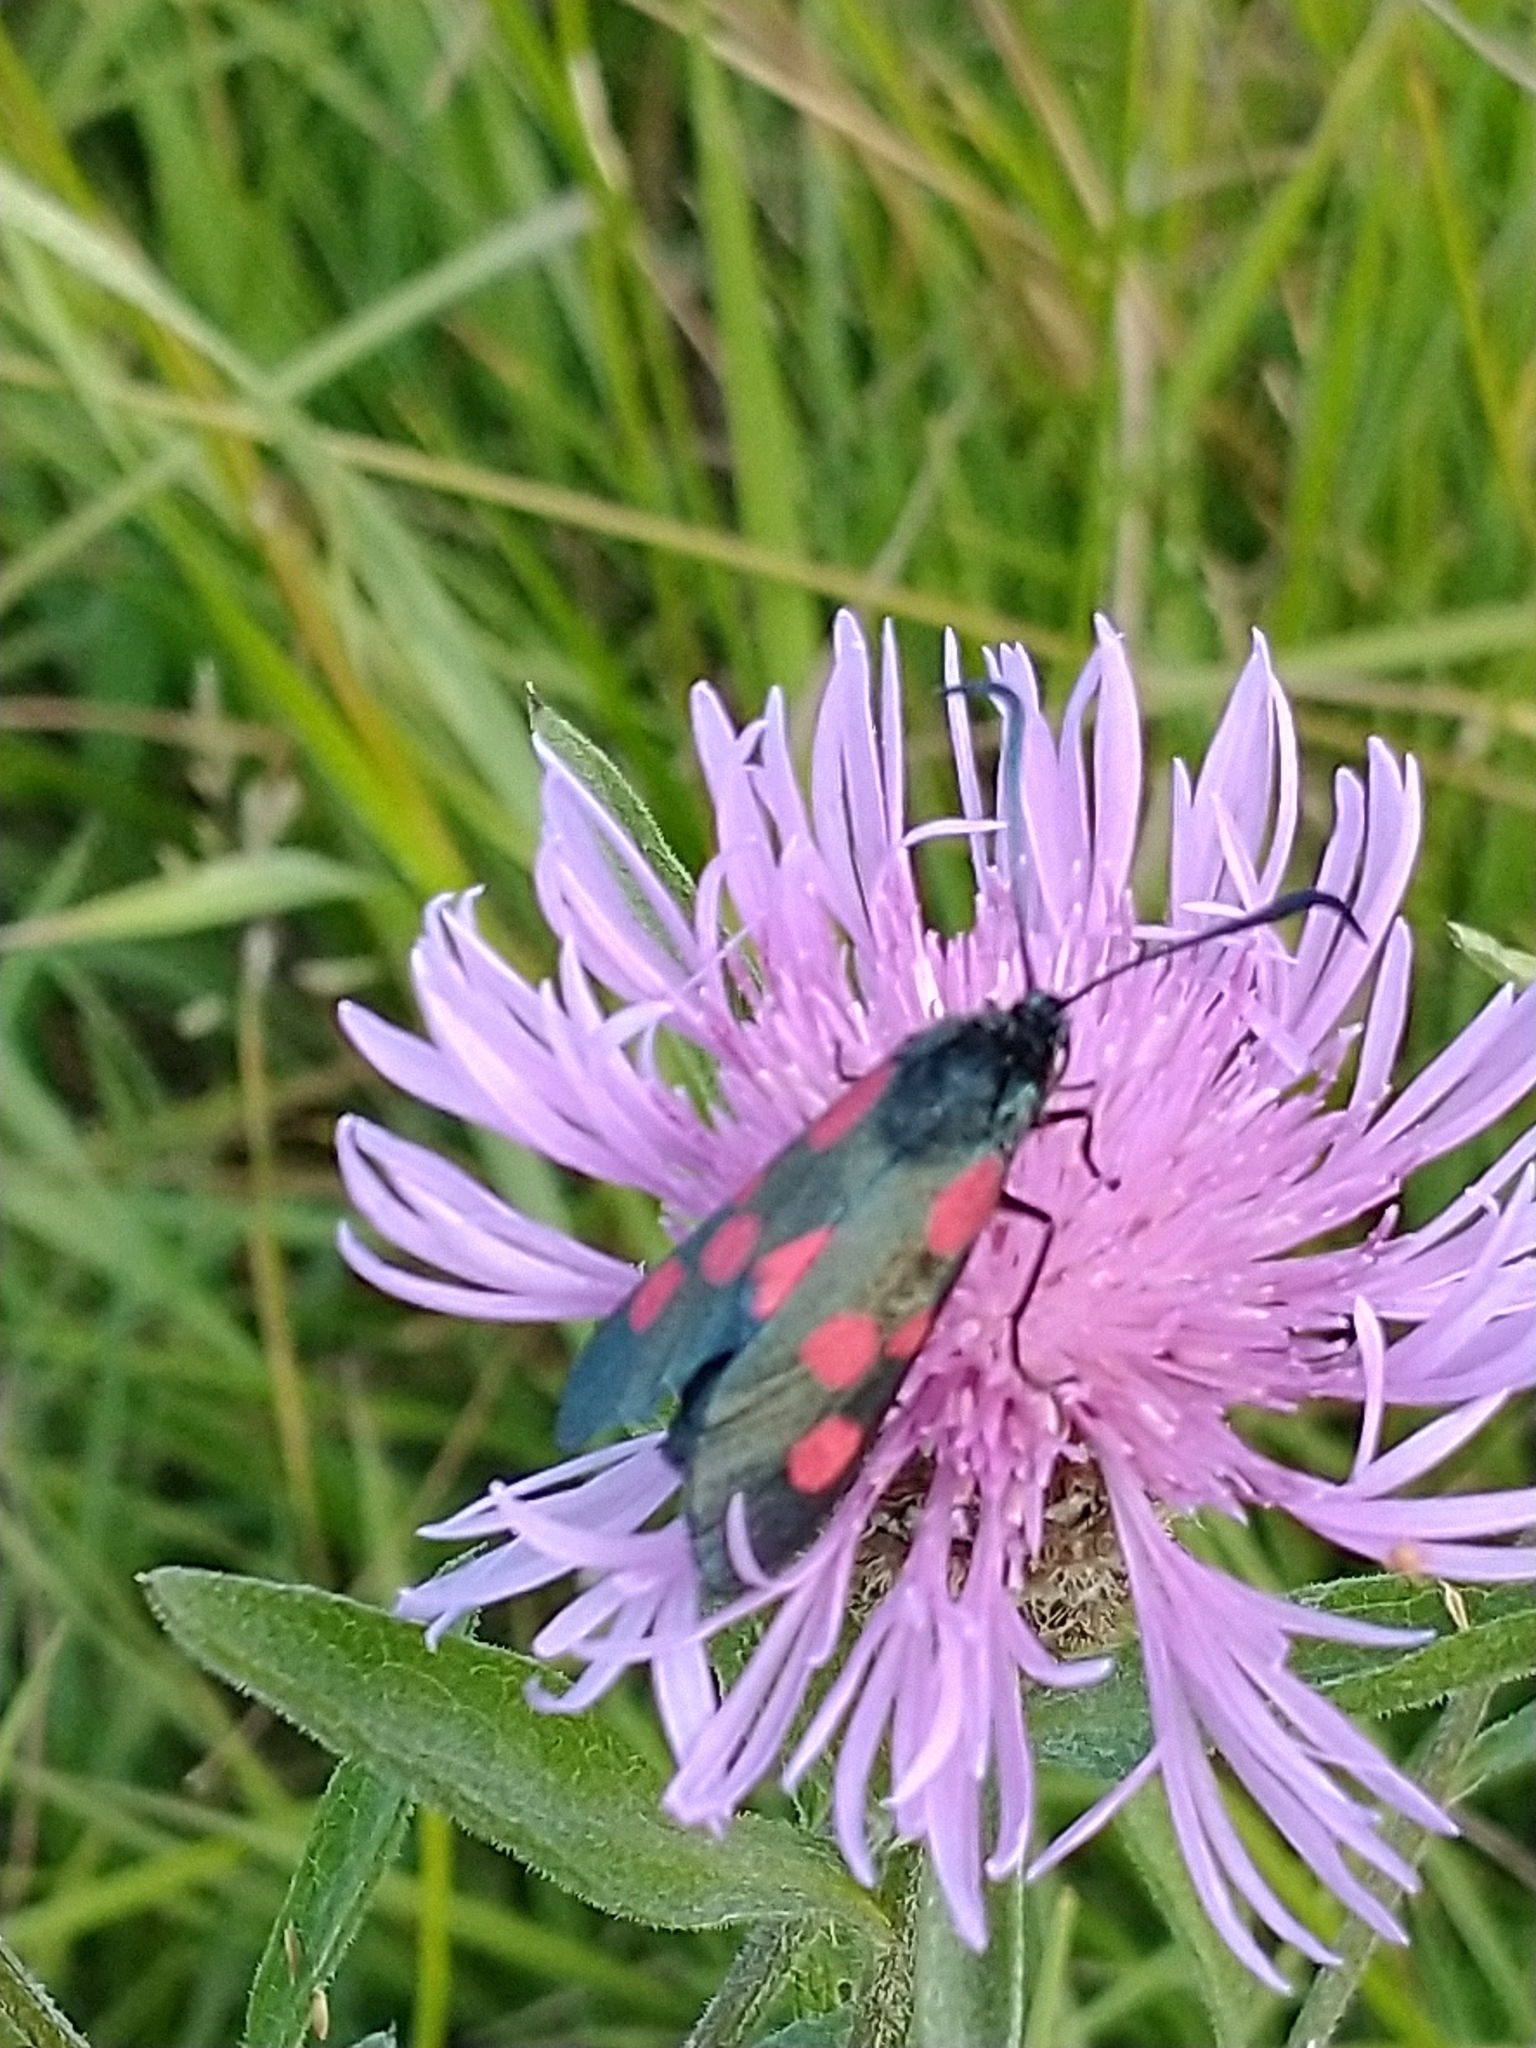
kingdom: Animalia
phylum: Arthropoda
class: Insecta
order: Lepidoptera
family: Zygaenidae
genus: Zygaena
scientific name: Zygaena lonicerae
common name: Narrow-bordered five-spot burnet
